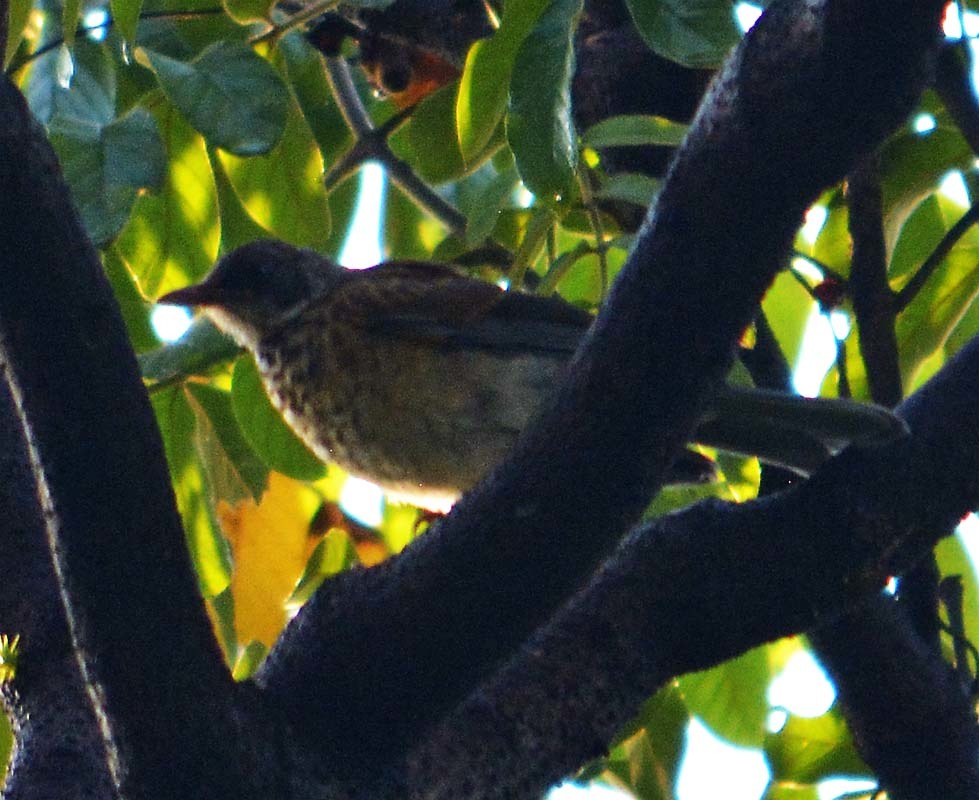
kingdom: Animalia
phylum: Chordata
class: Aves
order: Passeriformes
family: Turdidae
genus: Turdus
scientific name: Turdus rufopalliatus
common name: Rufous-backed robin
